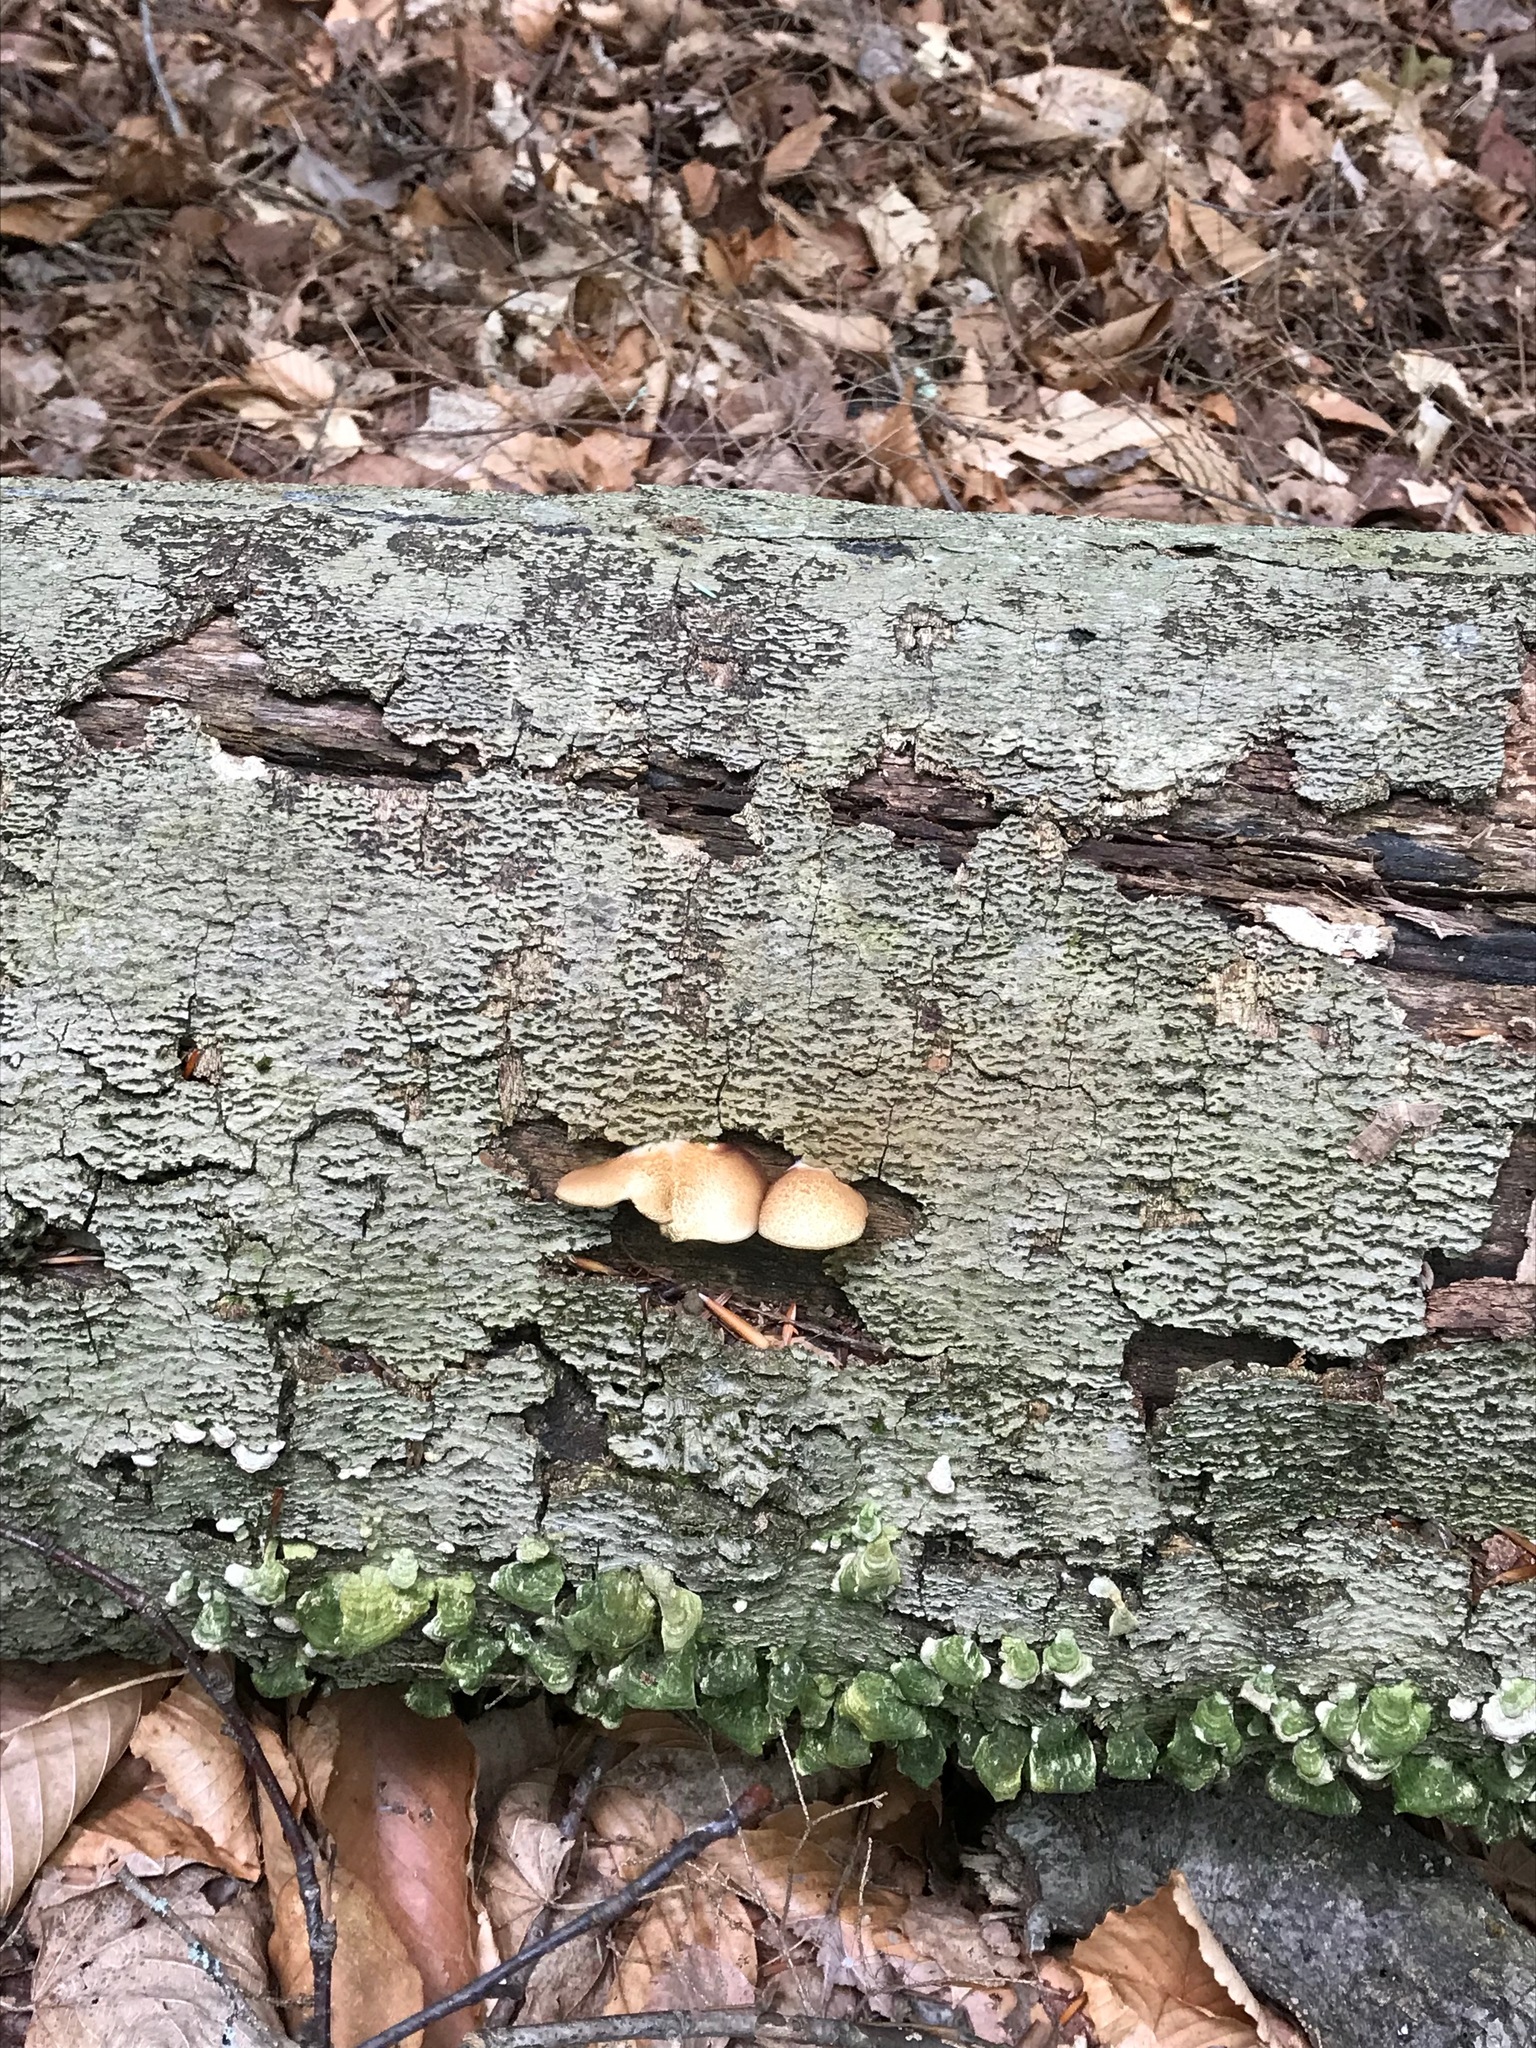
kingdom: Fungi
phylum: Basidiomycota
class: Agaricomycetes
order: Agaricales
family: Crepidotaceae
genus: Crepidotus
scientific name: Crepidotus crocophyllus
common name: Saffron oysterling
